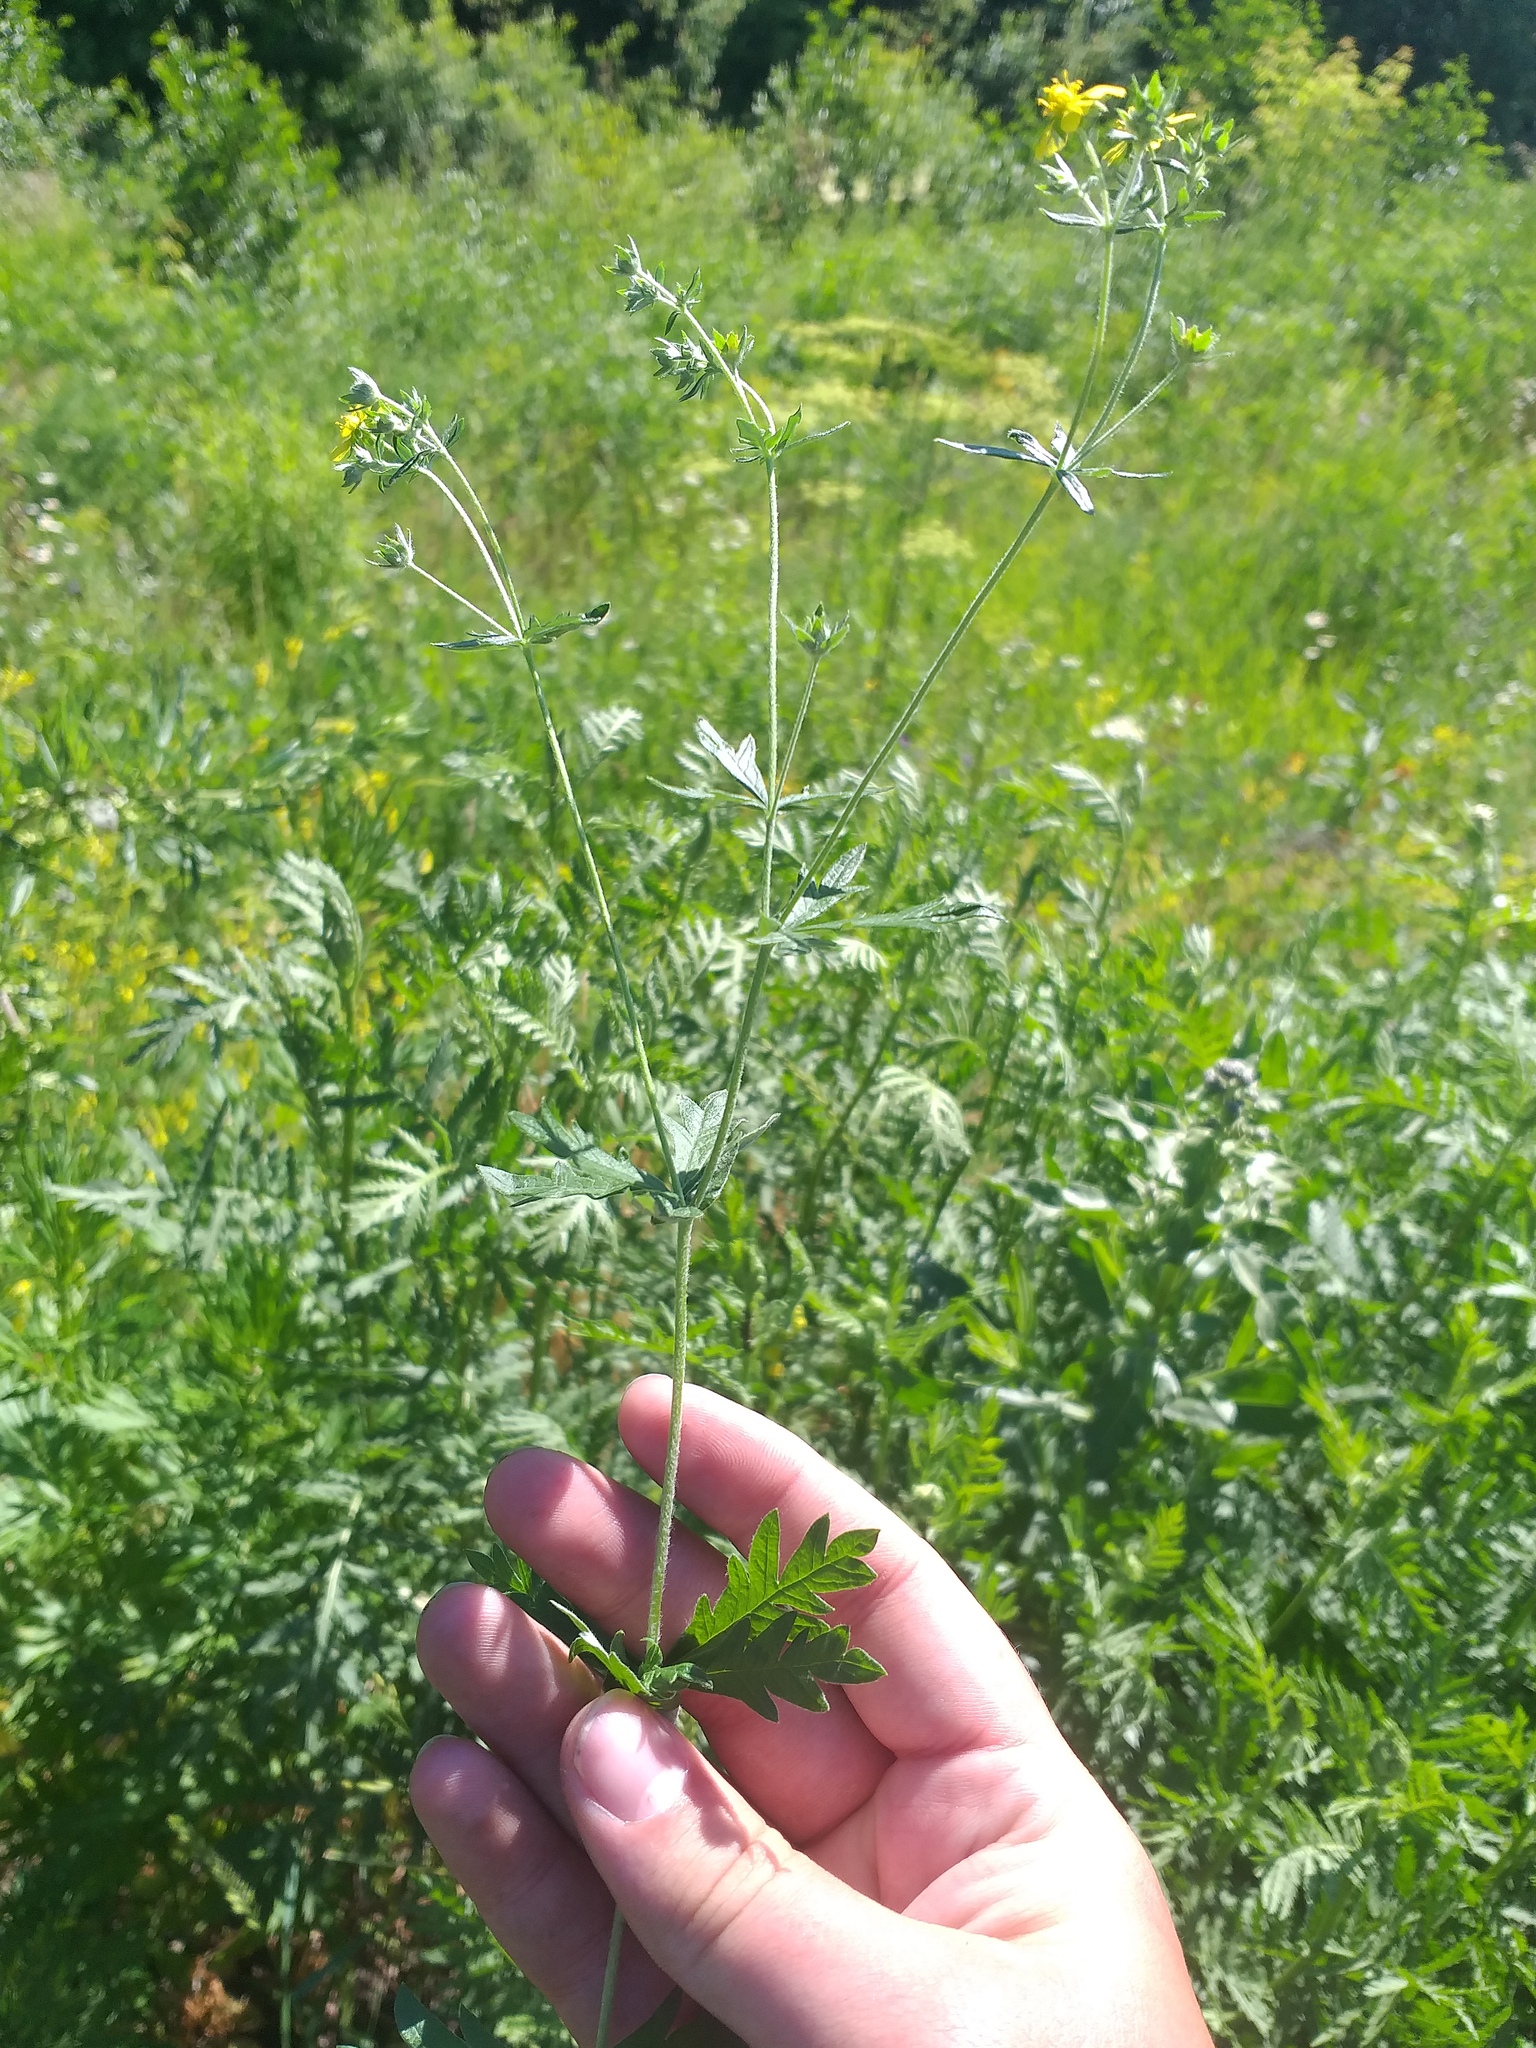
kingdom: Plantae
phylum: Tracheophyta
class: Magnoliopsida
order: Rosales
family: Rosaceae
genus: Potentilla
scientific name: Potentilla argentea
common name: Hoary cinquefoil
